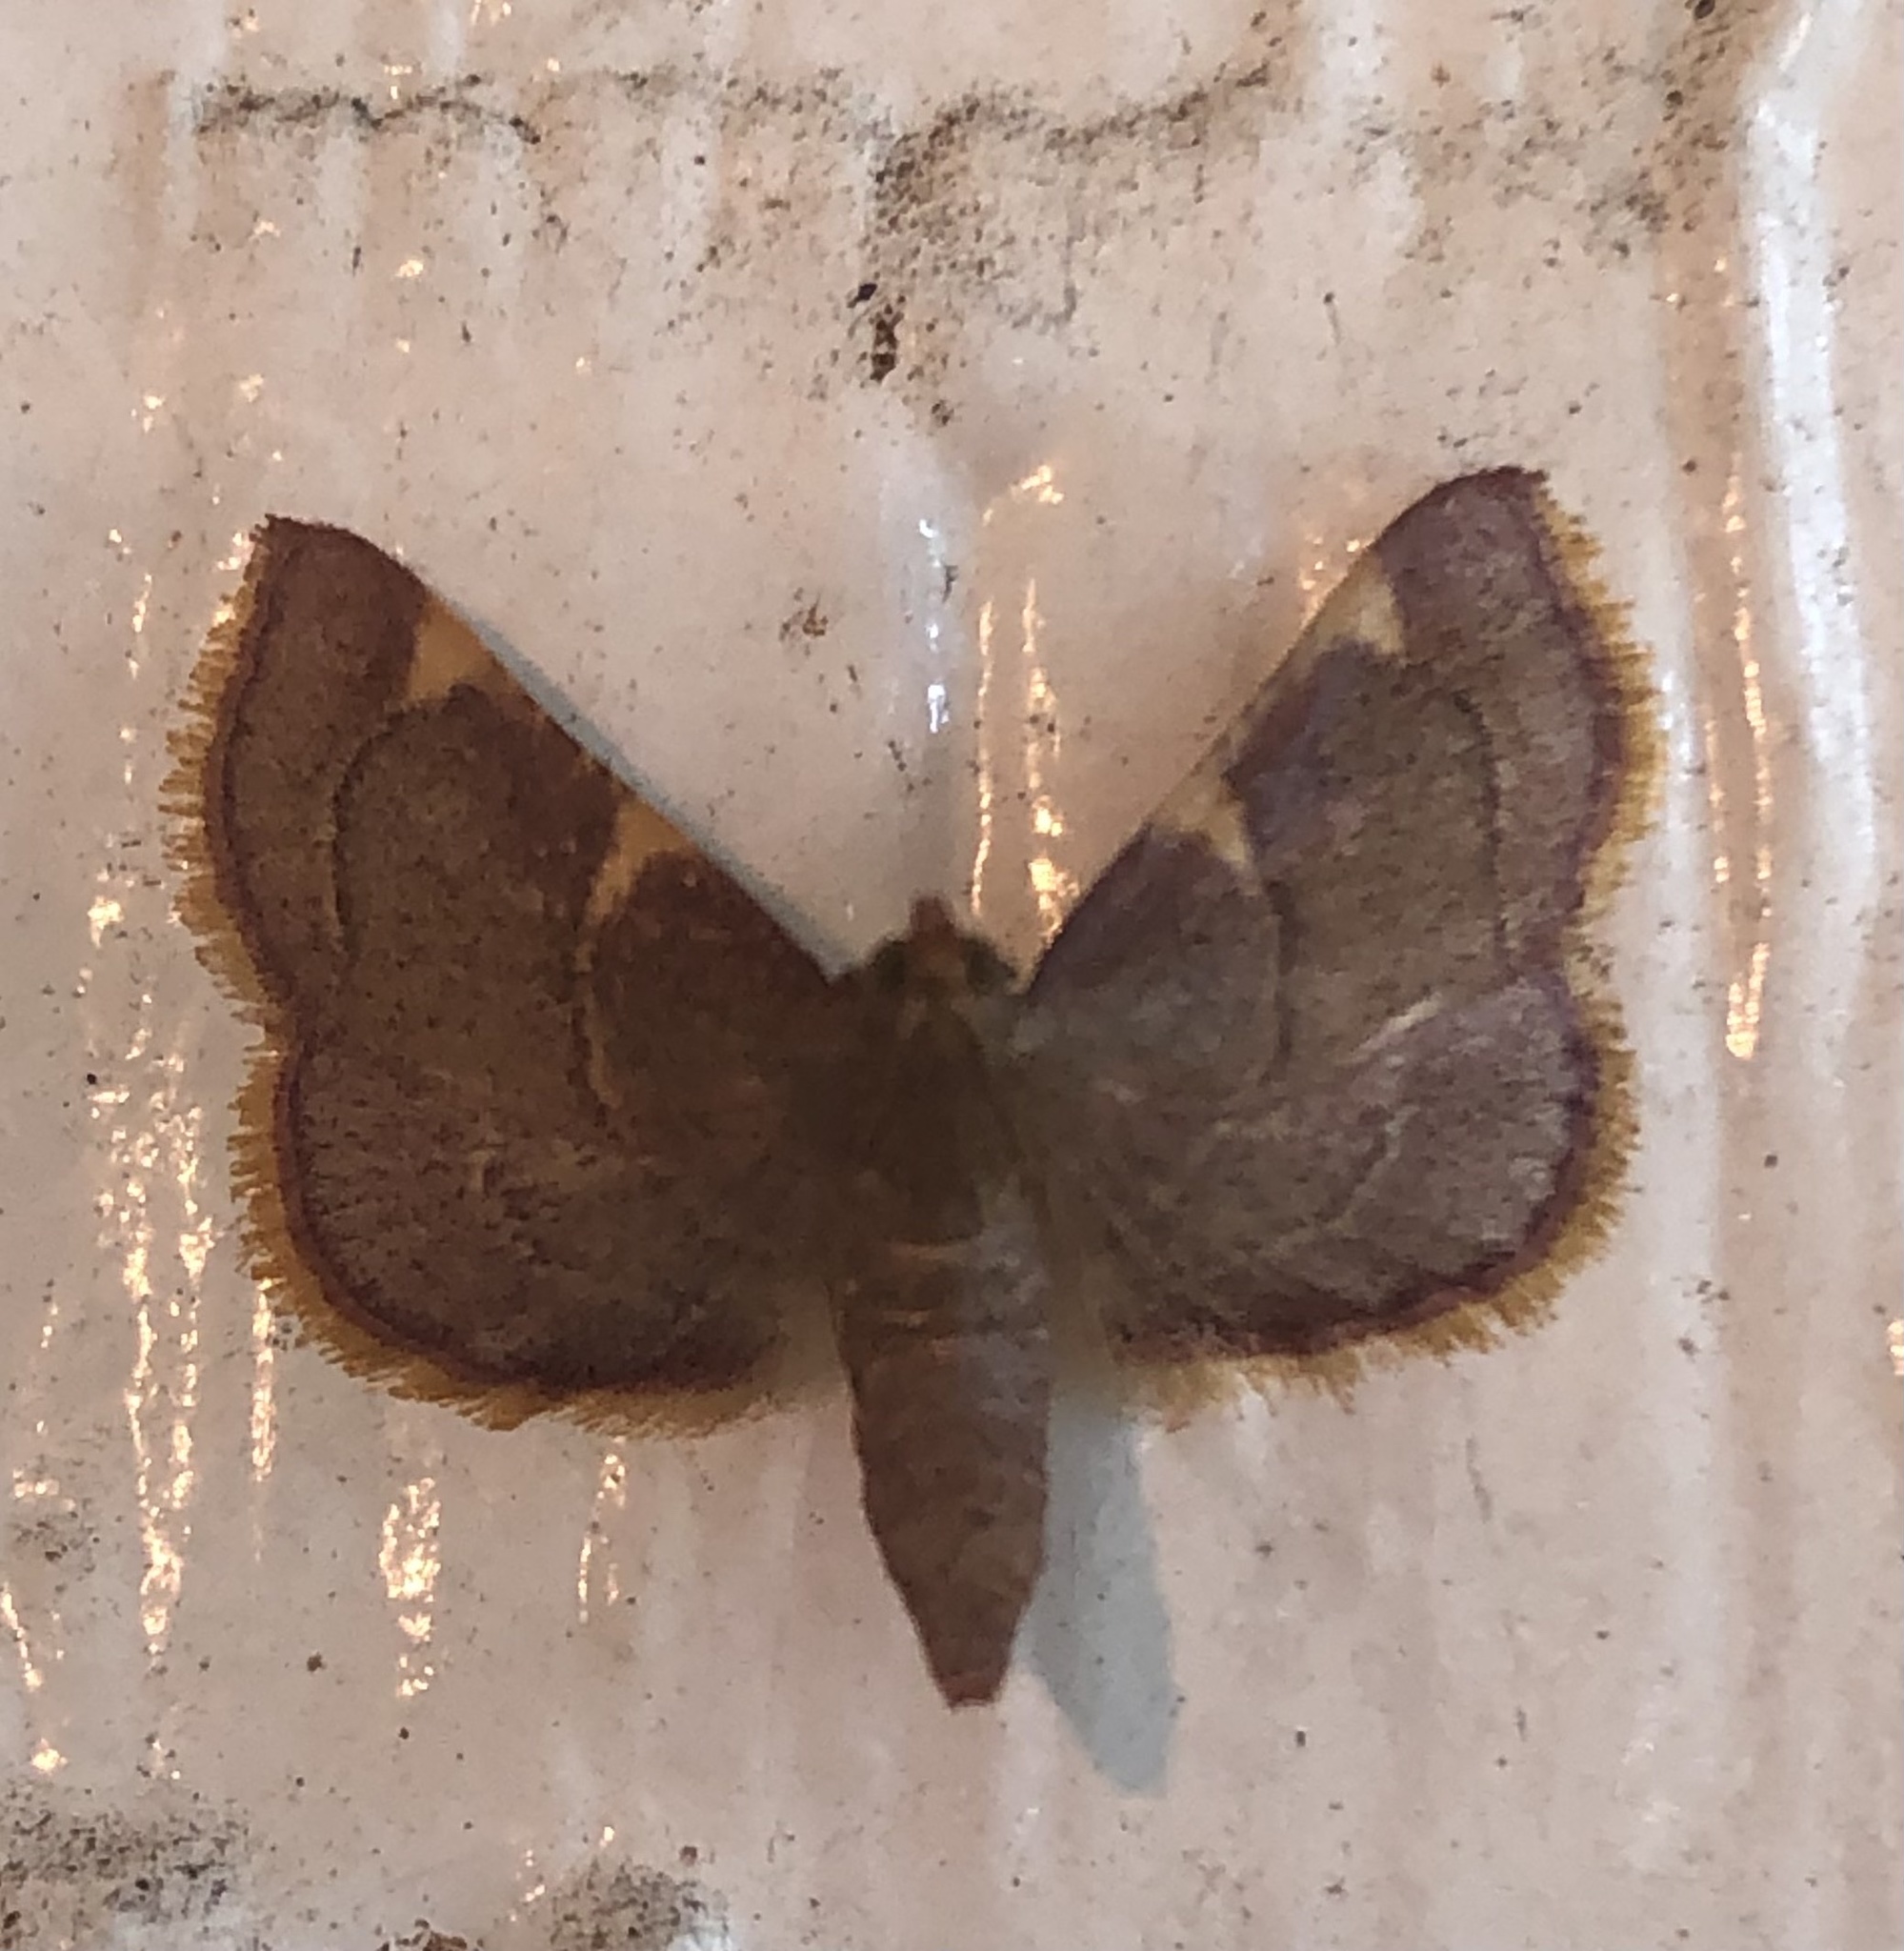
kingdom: Animalia
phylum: Arthropoda
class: Insecta
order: Lepidoptera
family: Pyralidae
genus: Hypsopygia
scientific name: Hypsopygia olinalis
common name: Yellow-fringed dolichomia moth
